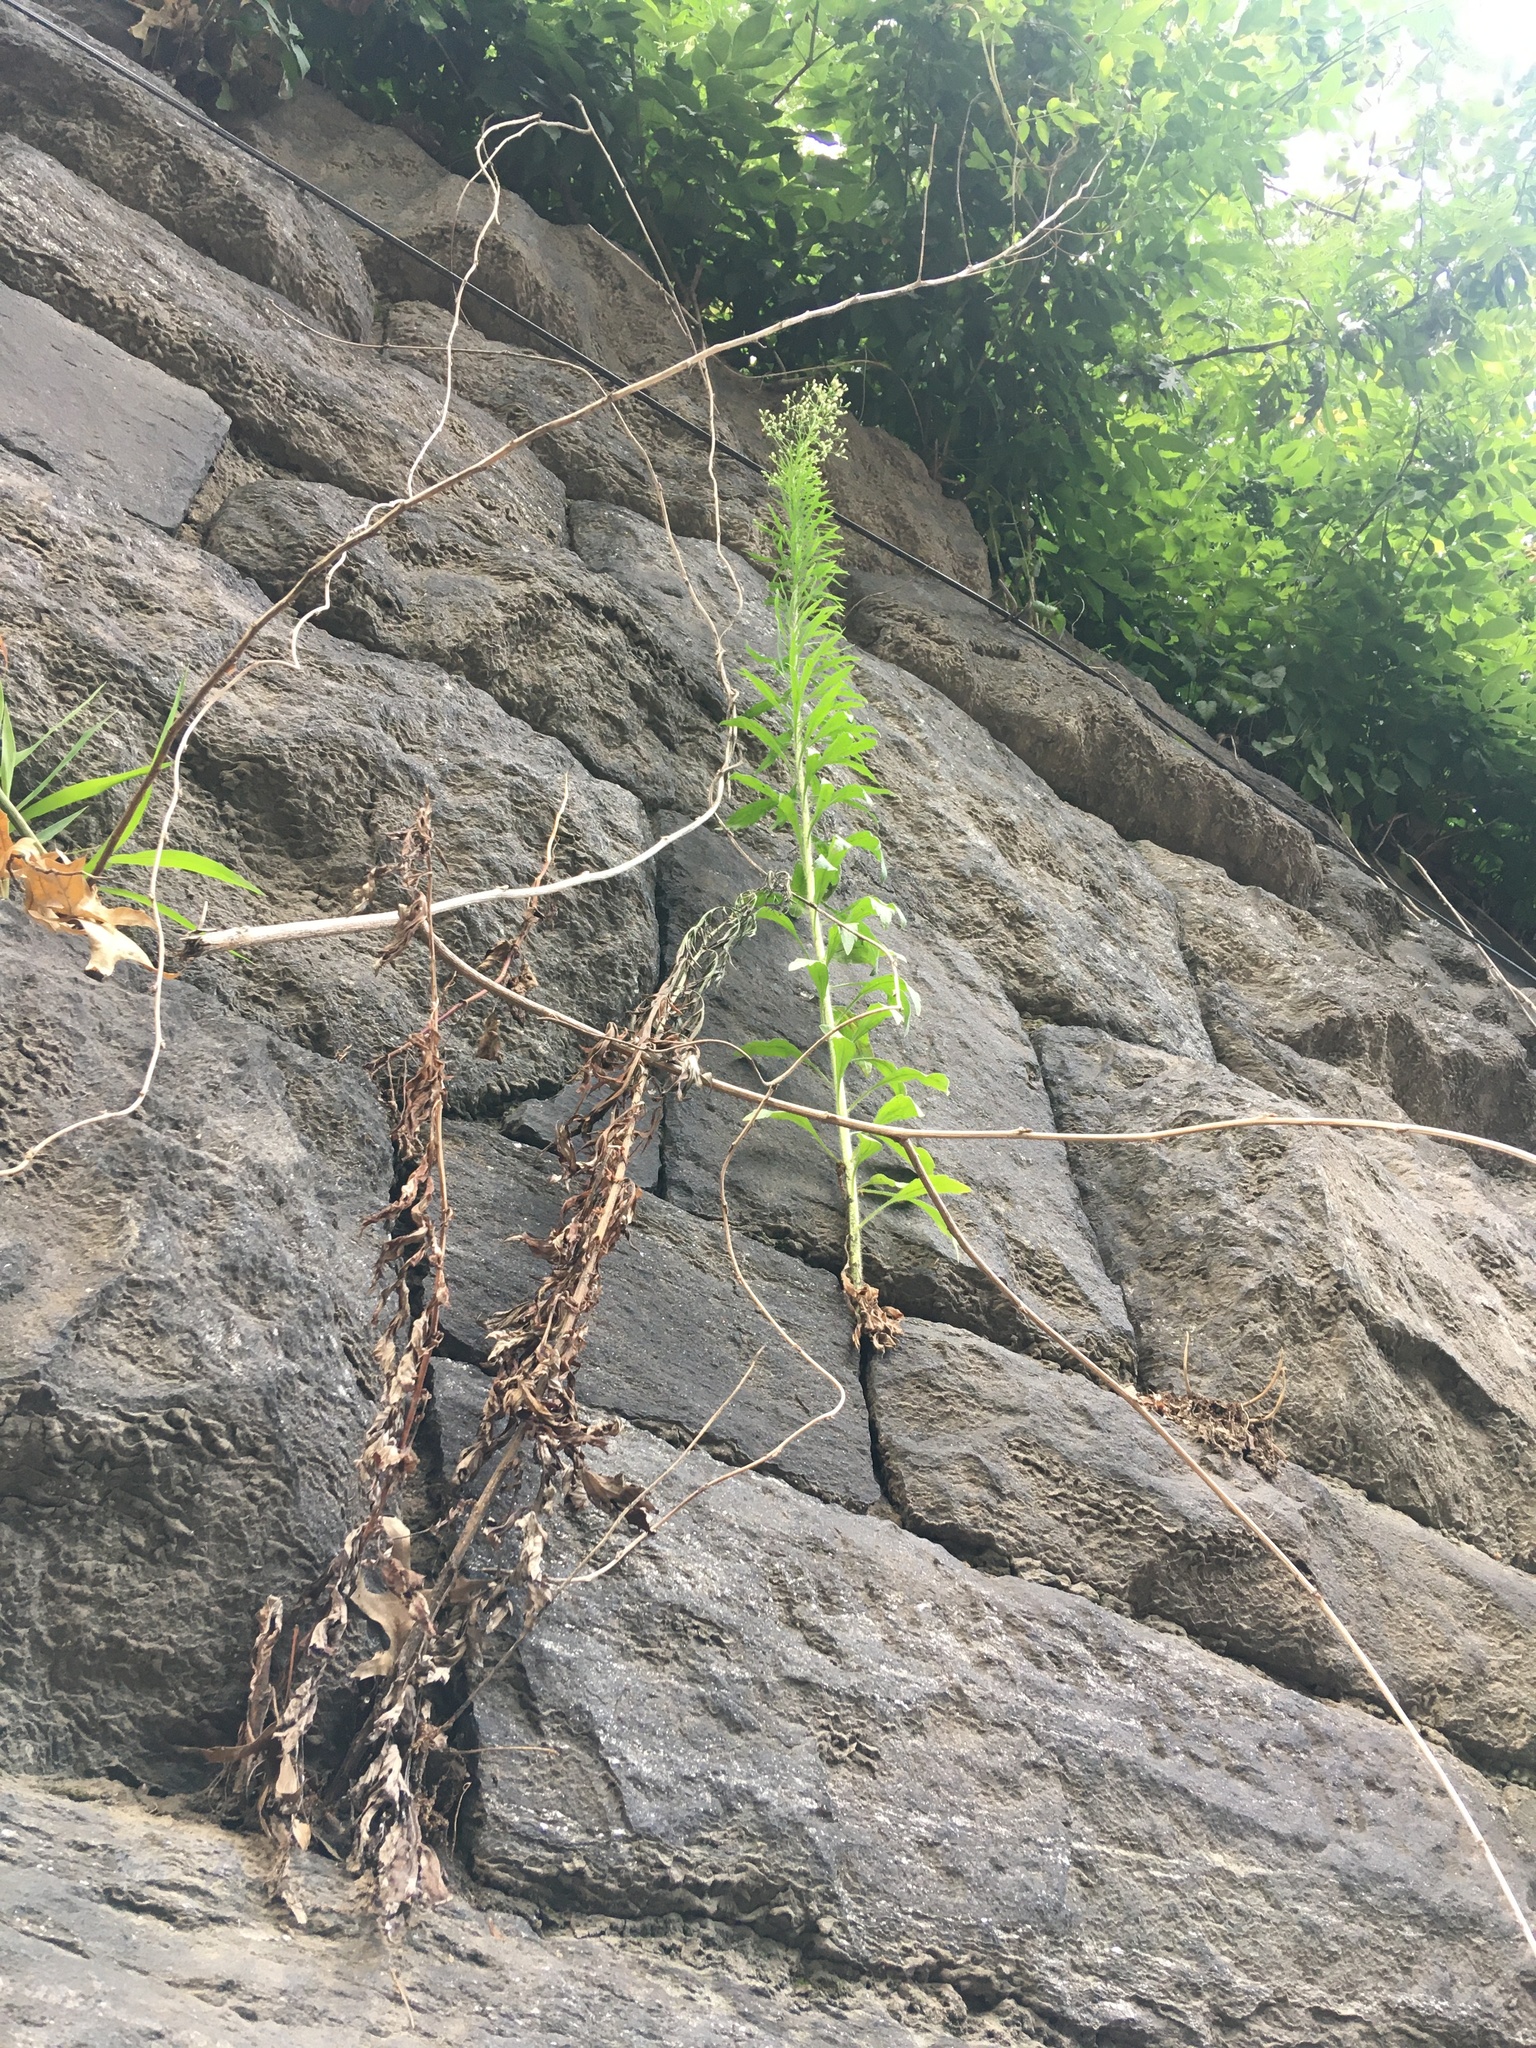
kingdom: Plantae
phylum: Tracheophyta
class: Magnoliopsida
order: Asterales
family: Asteraceae
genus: Erigeron
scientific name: Erigeron canadensis
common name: Canadian fleabane
